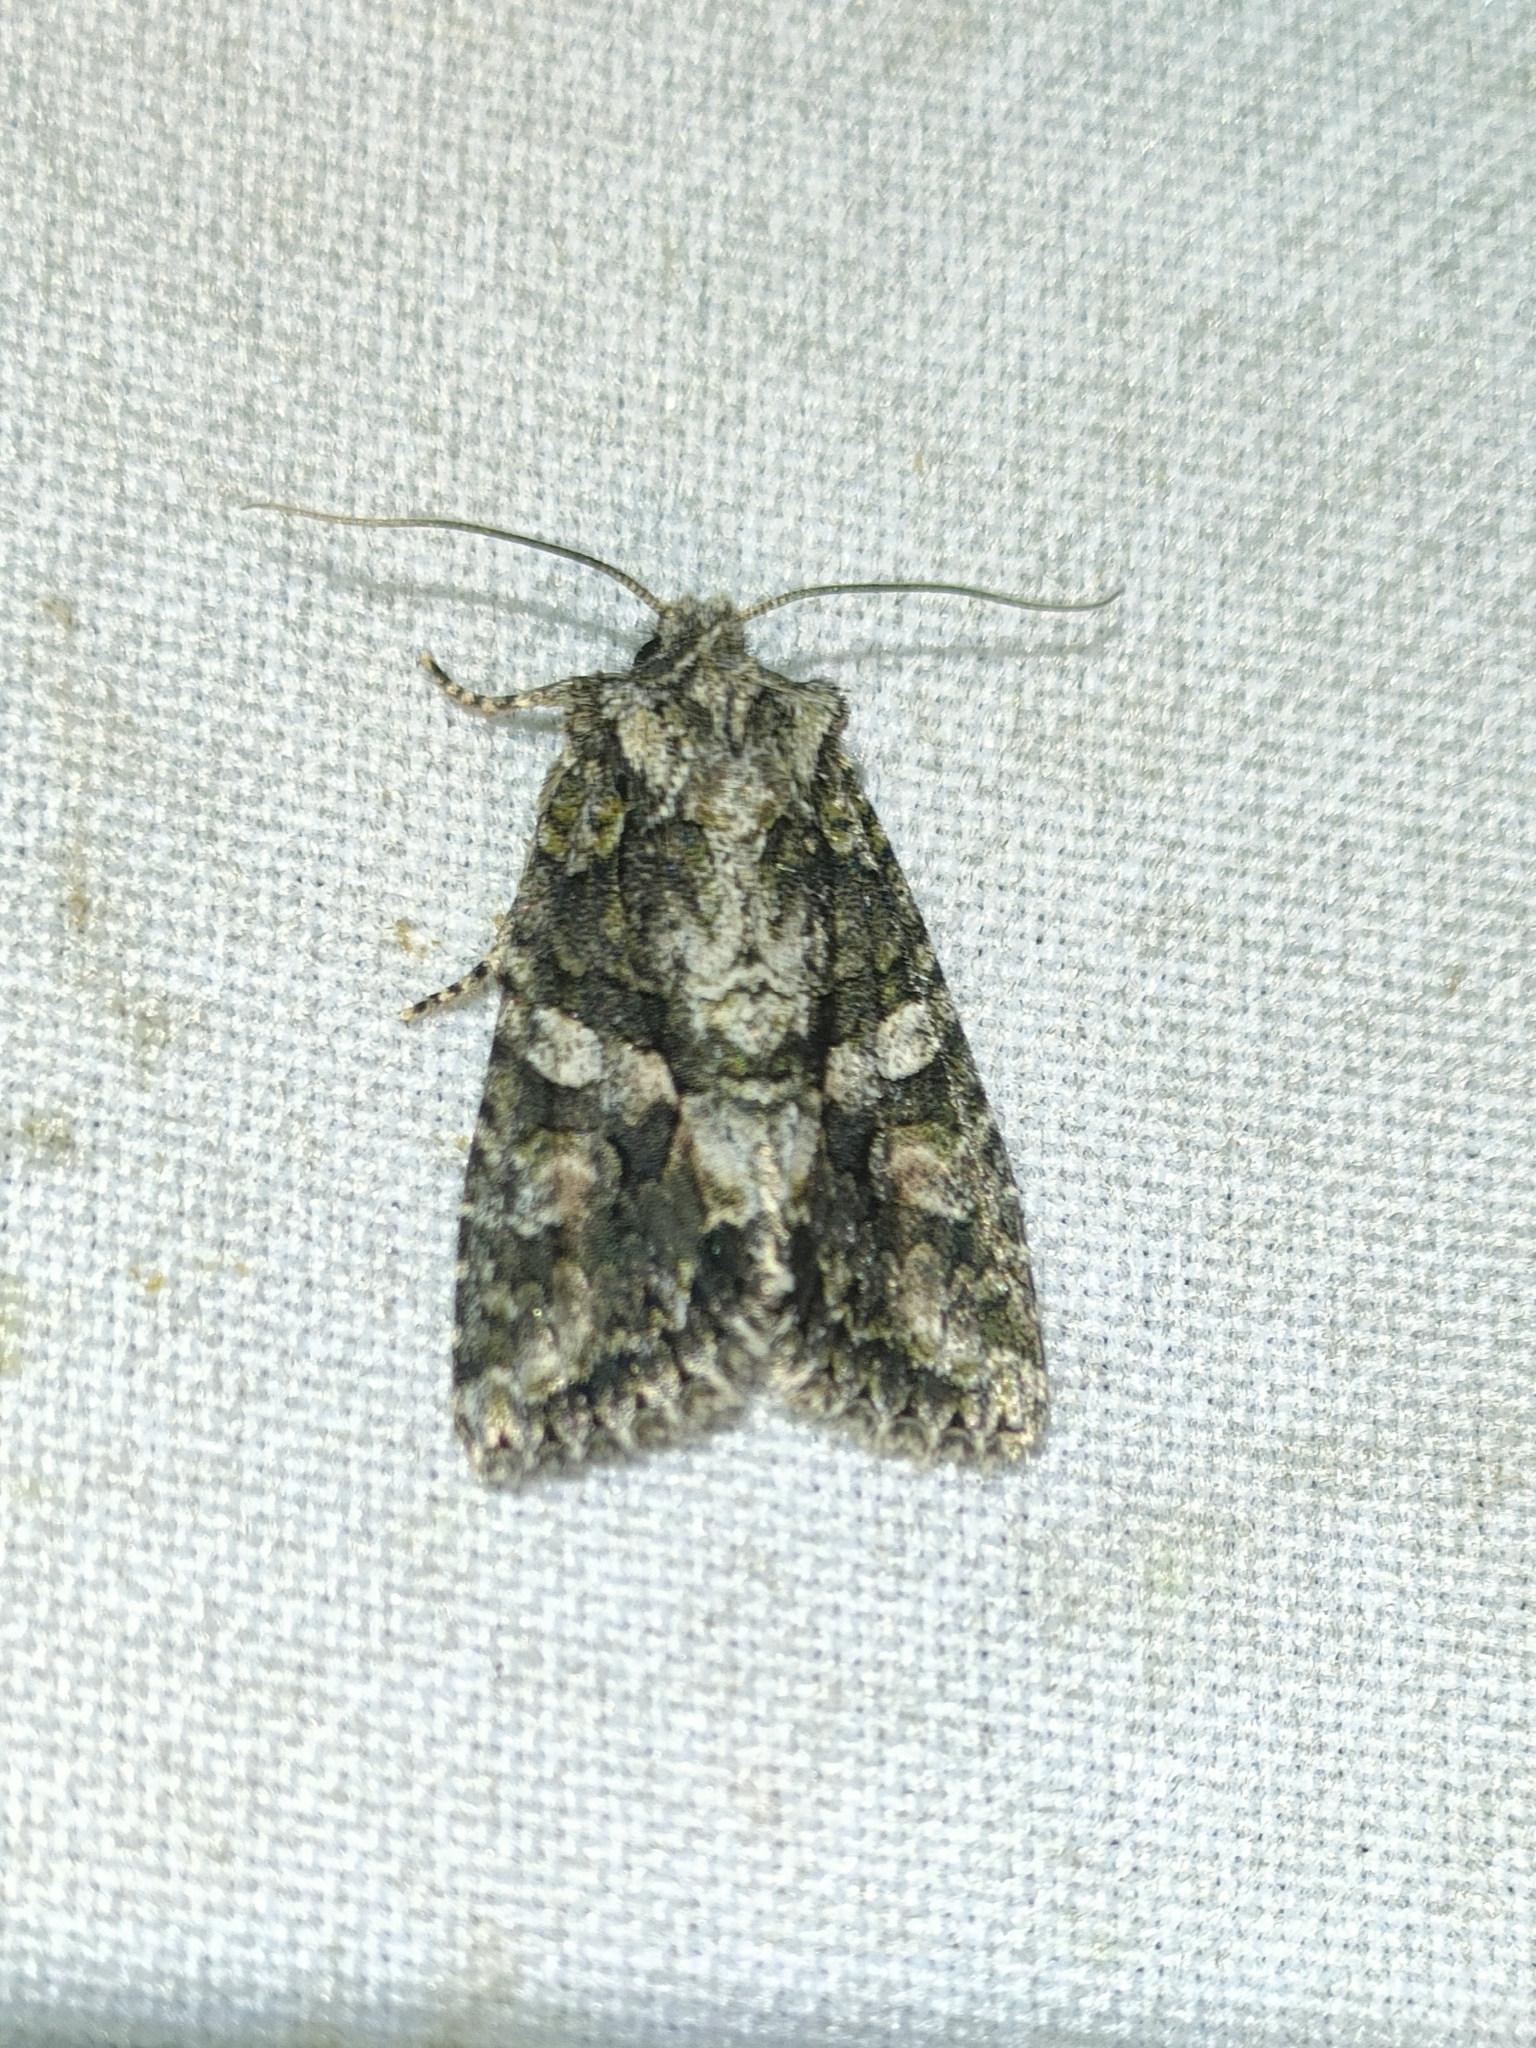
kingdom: Animalia
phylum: Arthropoda
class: Insecta
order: Lepidoptera
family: Noctuidae
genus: Dryobotodes
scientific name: Dryobotodes eremita
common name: Brindled green
